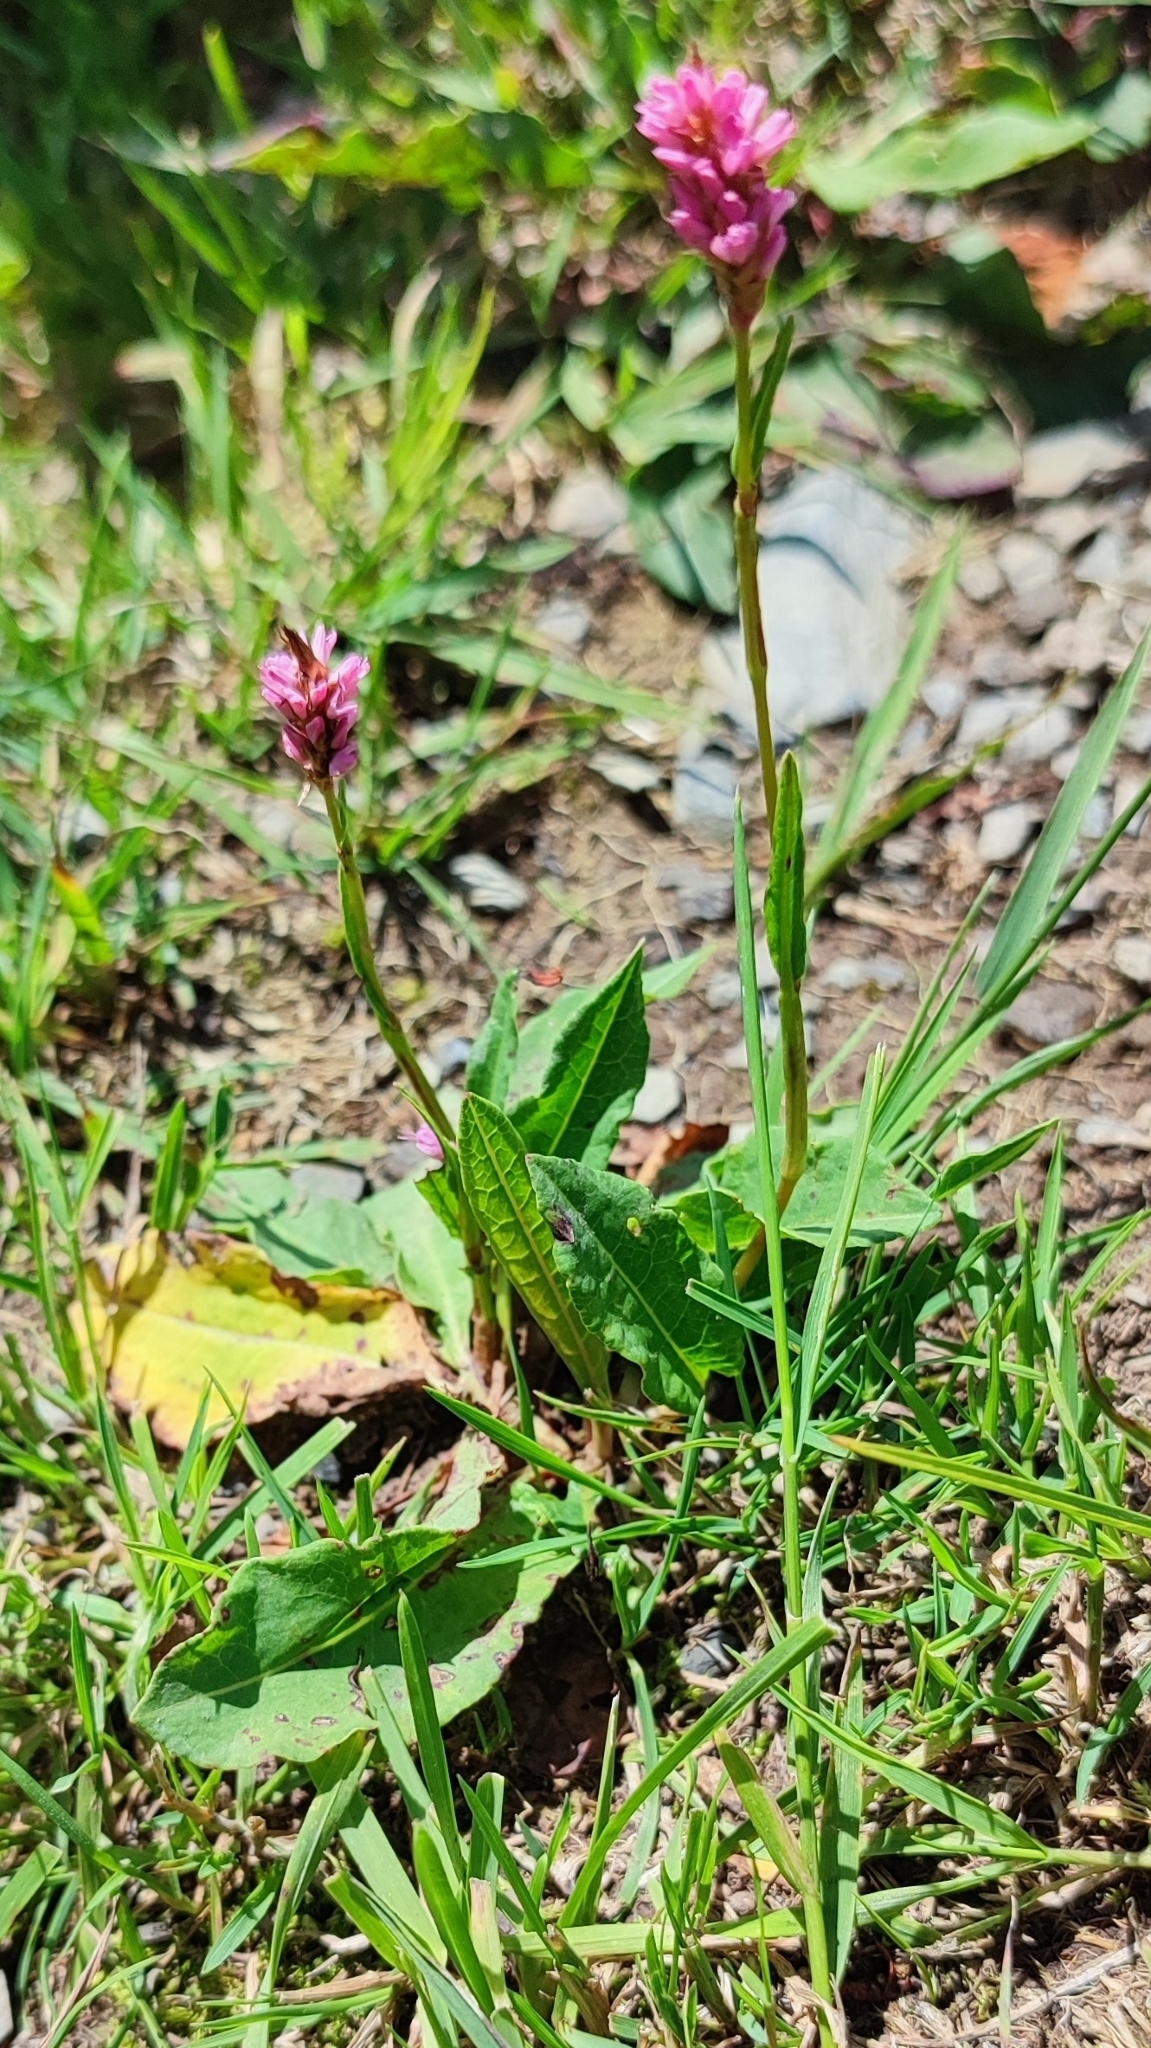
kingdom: Plantae
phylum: Tracheophyta
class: Magnoliopsida
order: Caryophyllales
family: Polygonaceae
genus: Bistorta
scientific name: Bistorta carnea
